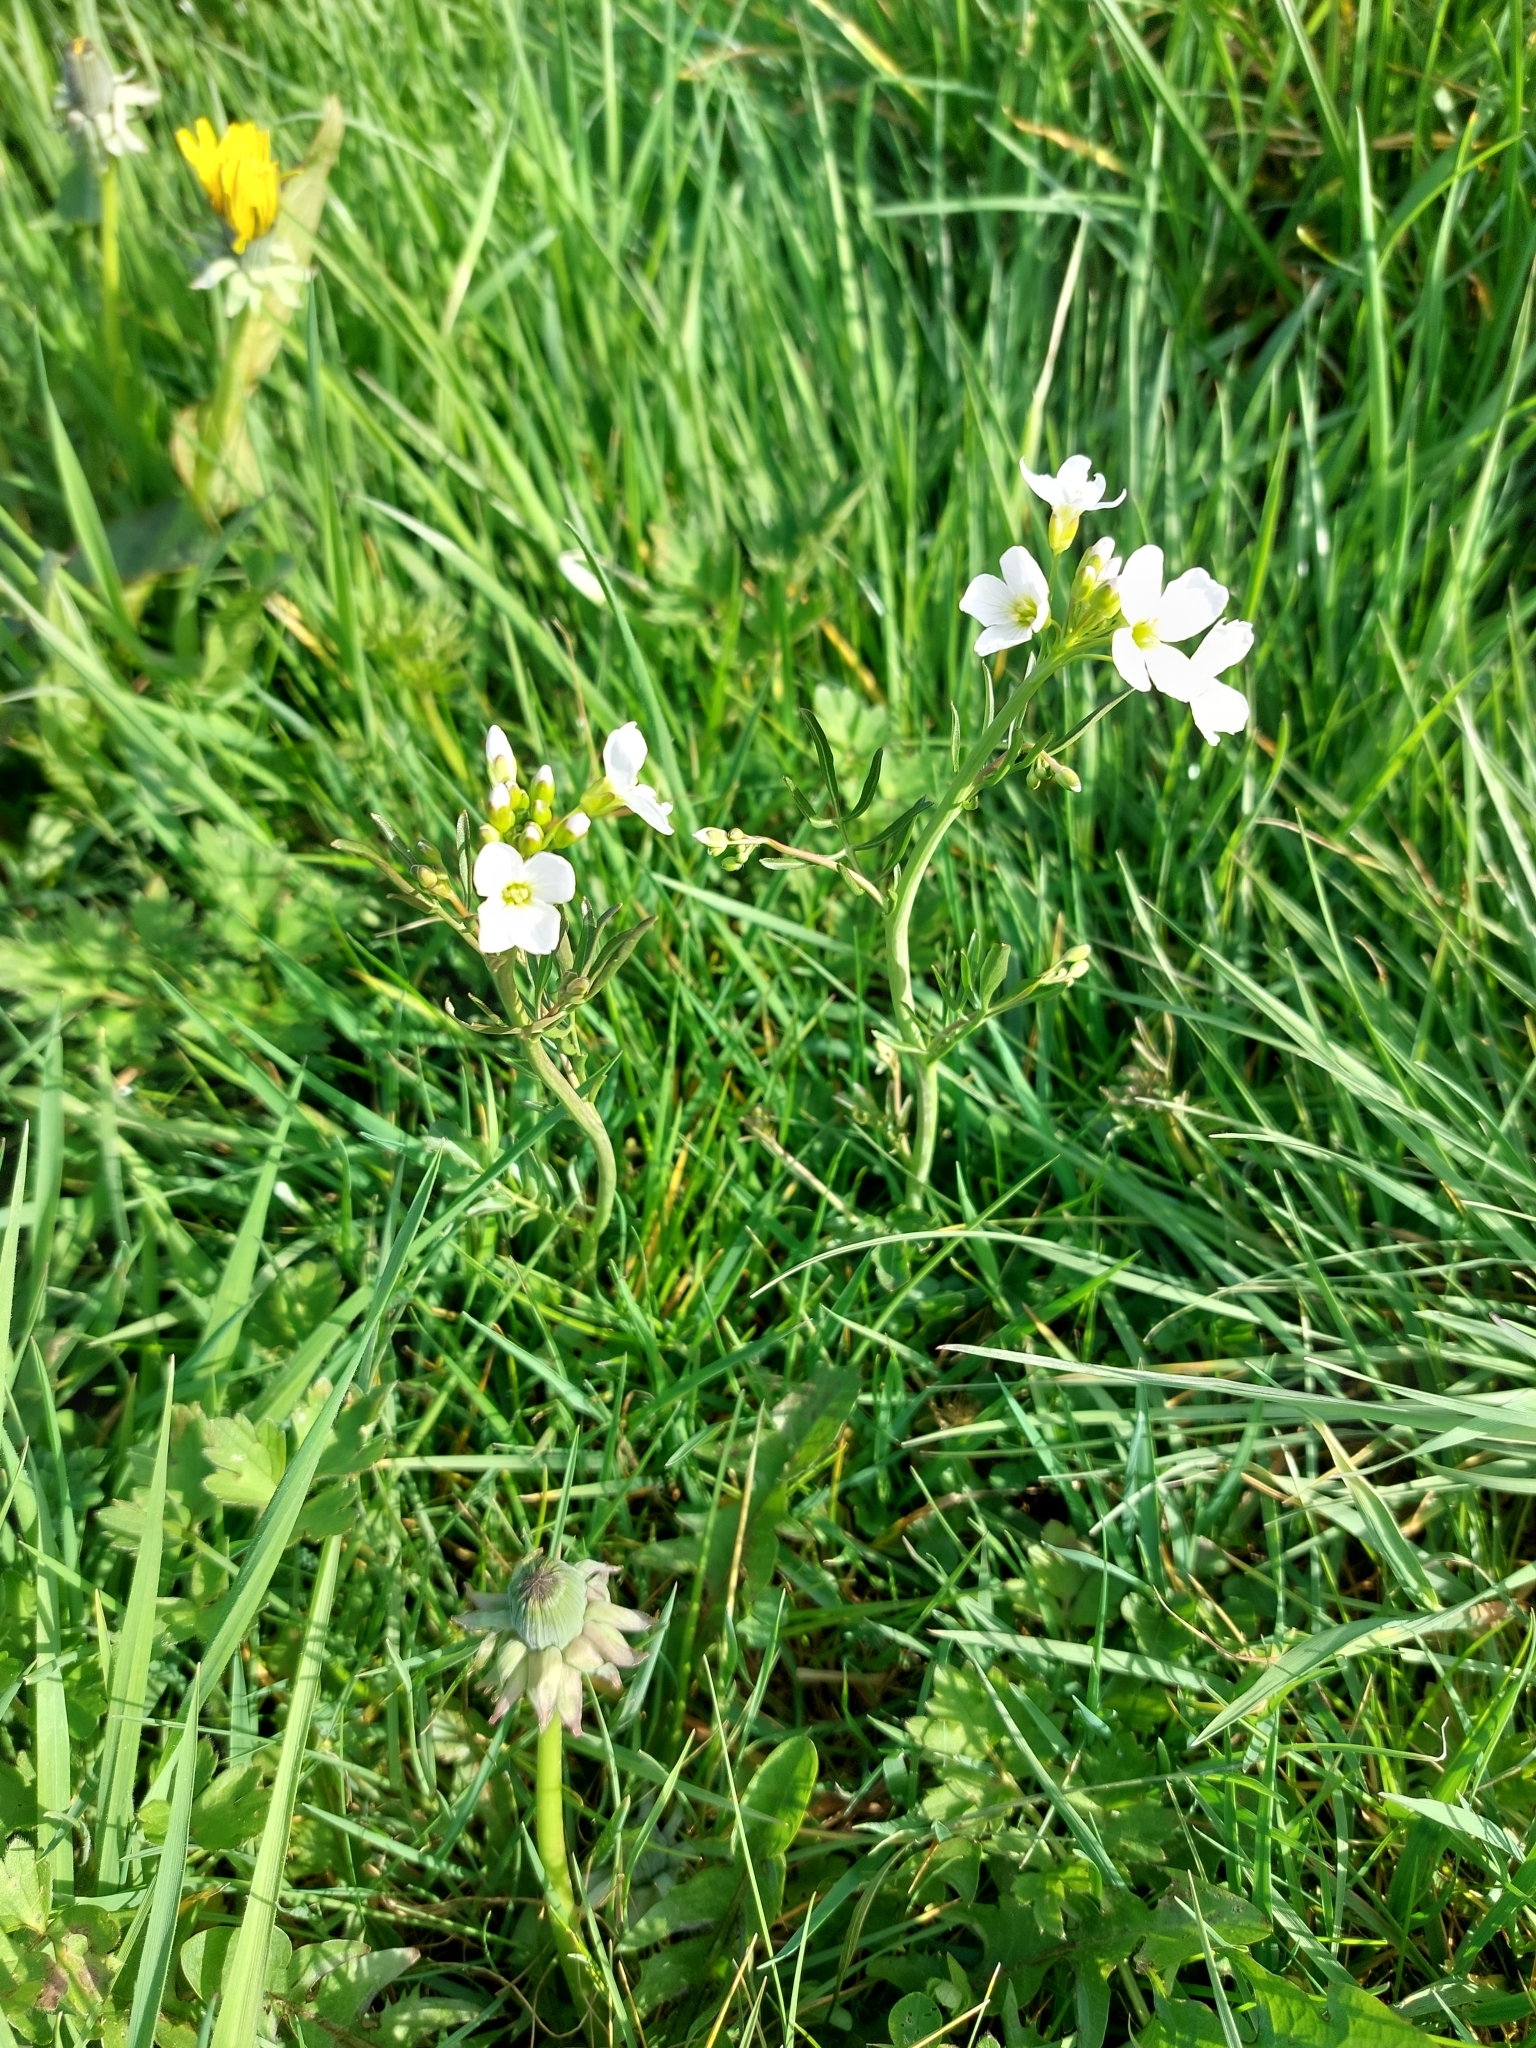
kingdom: Plantae
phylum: Tracheophyta
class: Magnoliopsida
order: Brassicales
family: Brassicaceae
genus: Cardamine
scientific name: Cardamine pratensis
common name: Cuckoo flower
